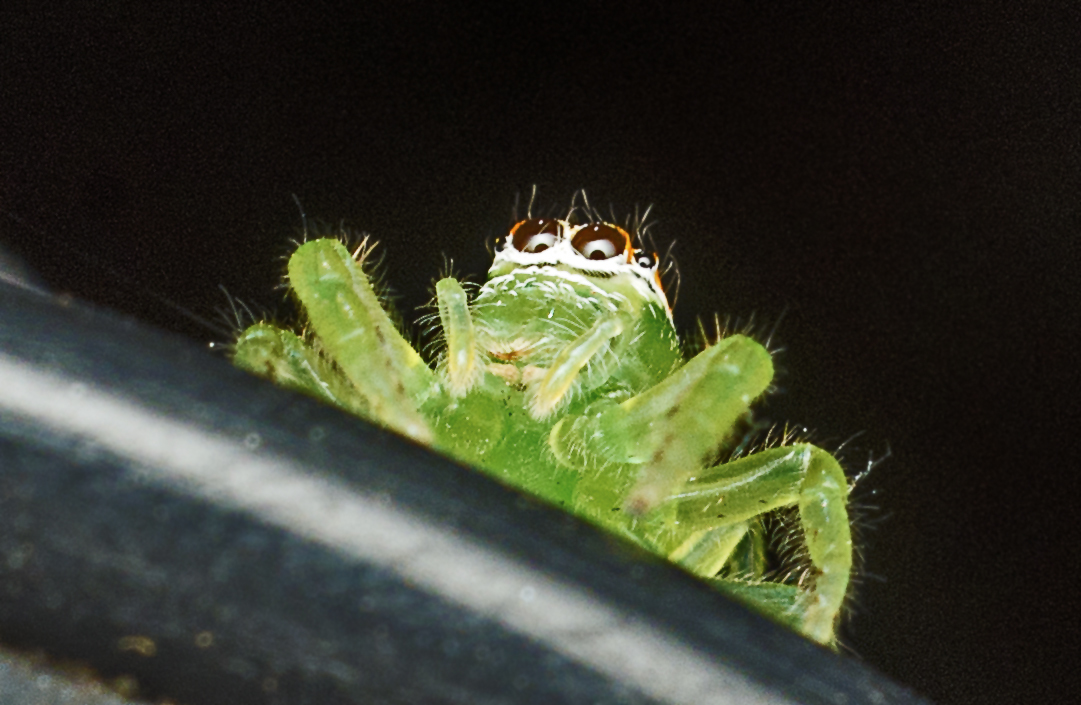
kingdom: Animalia
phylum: Arthropoda
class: Arachnida
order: Araneae
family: Salticidae
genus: Mopsus
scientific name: Mopsus mormon
